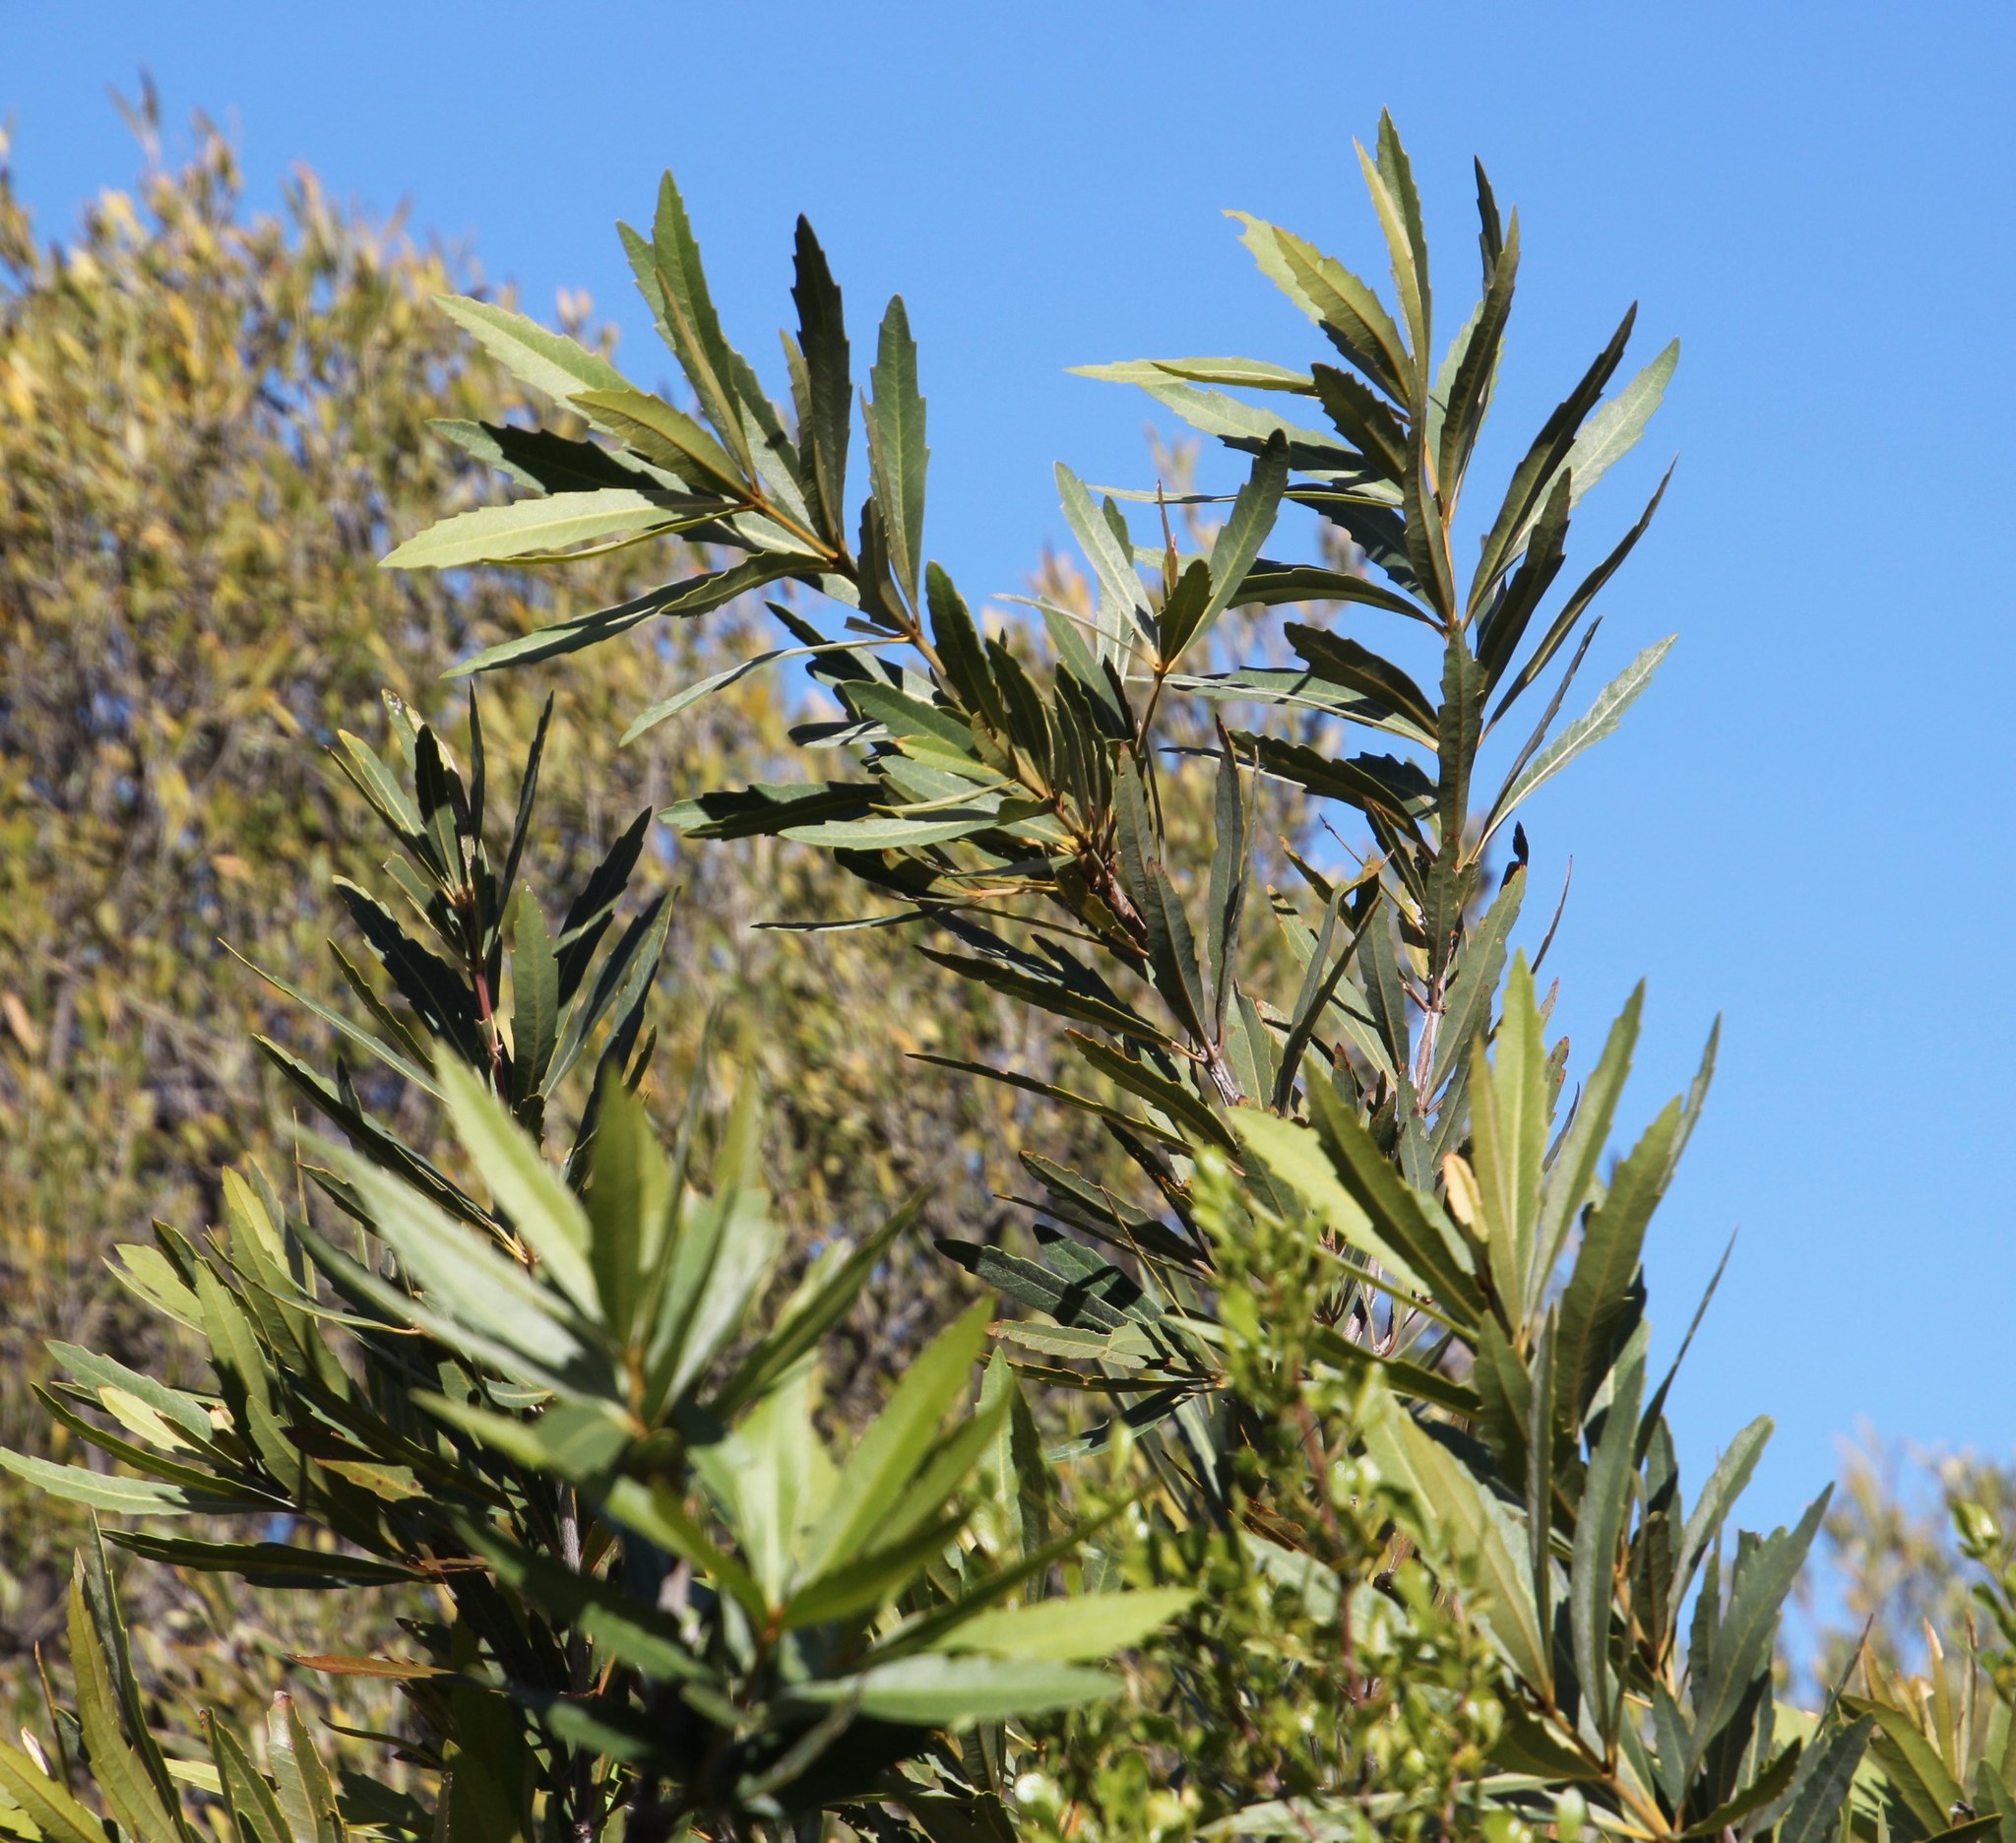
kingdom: Plantae
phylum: Tracheophyta
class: Magnoliopsida
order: Proteales
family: Proteaceae
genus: Brabejum
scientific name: Brabejum stellatifolium
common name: Wild almond
